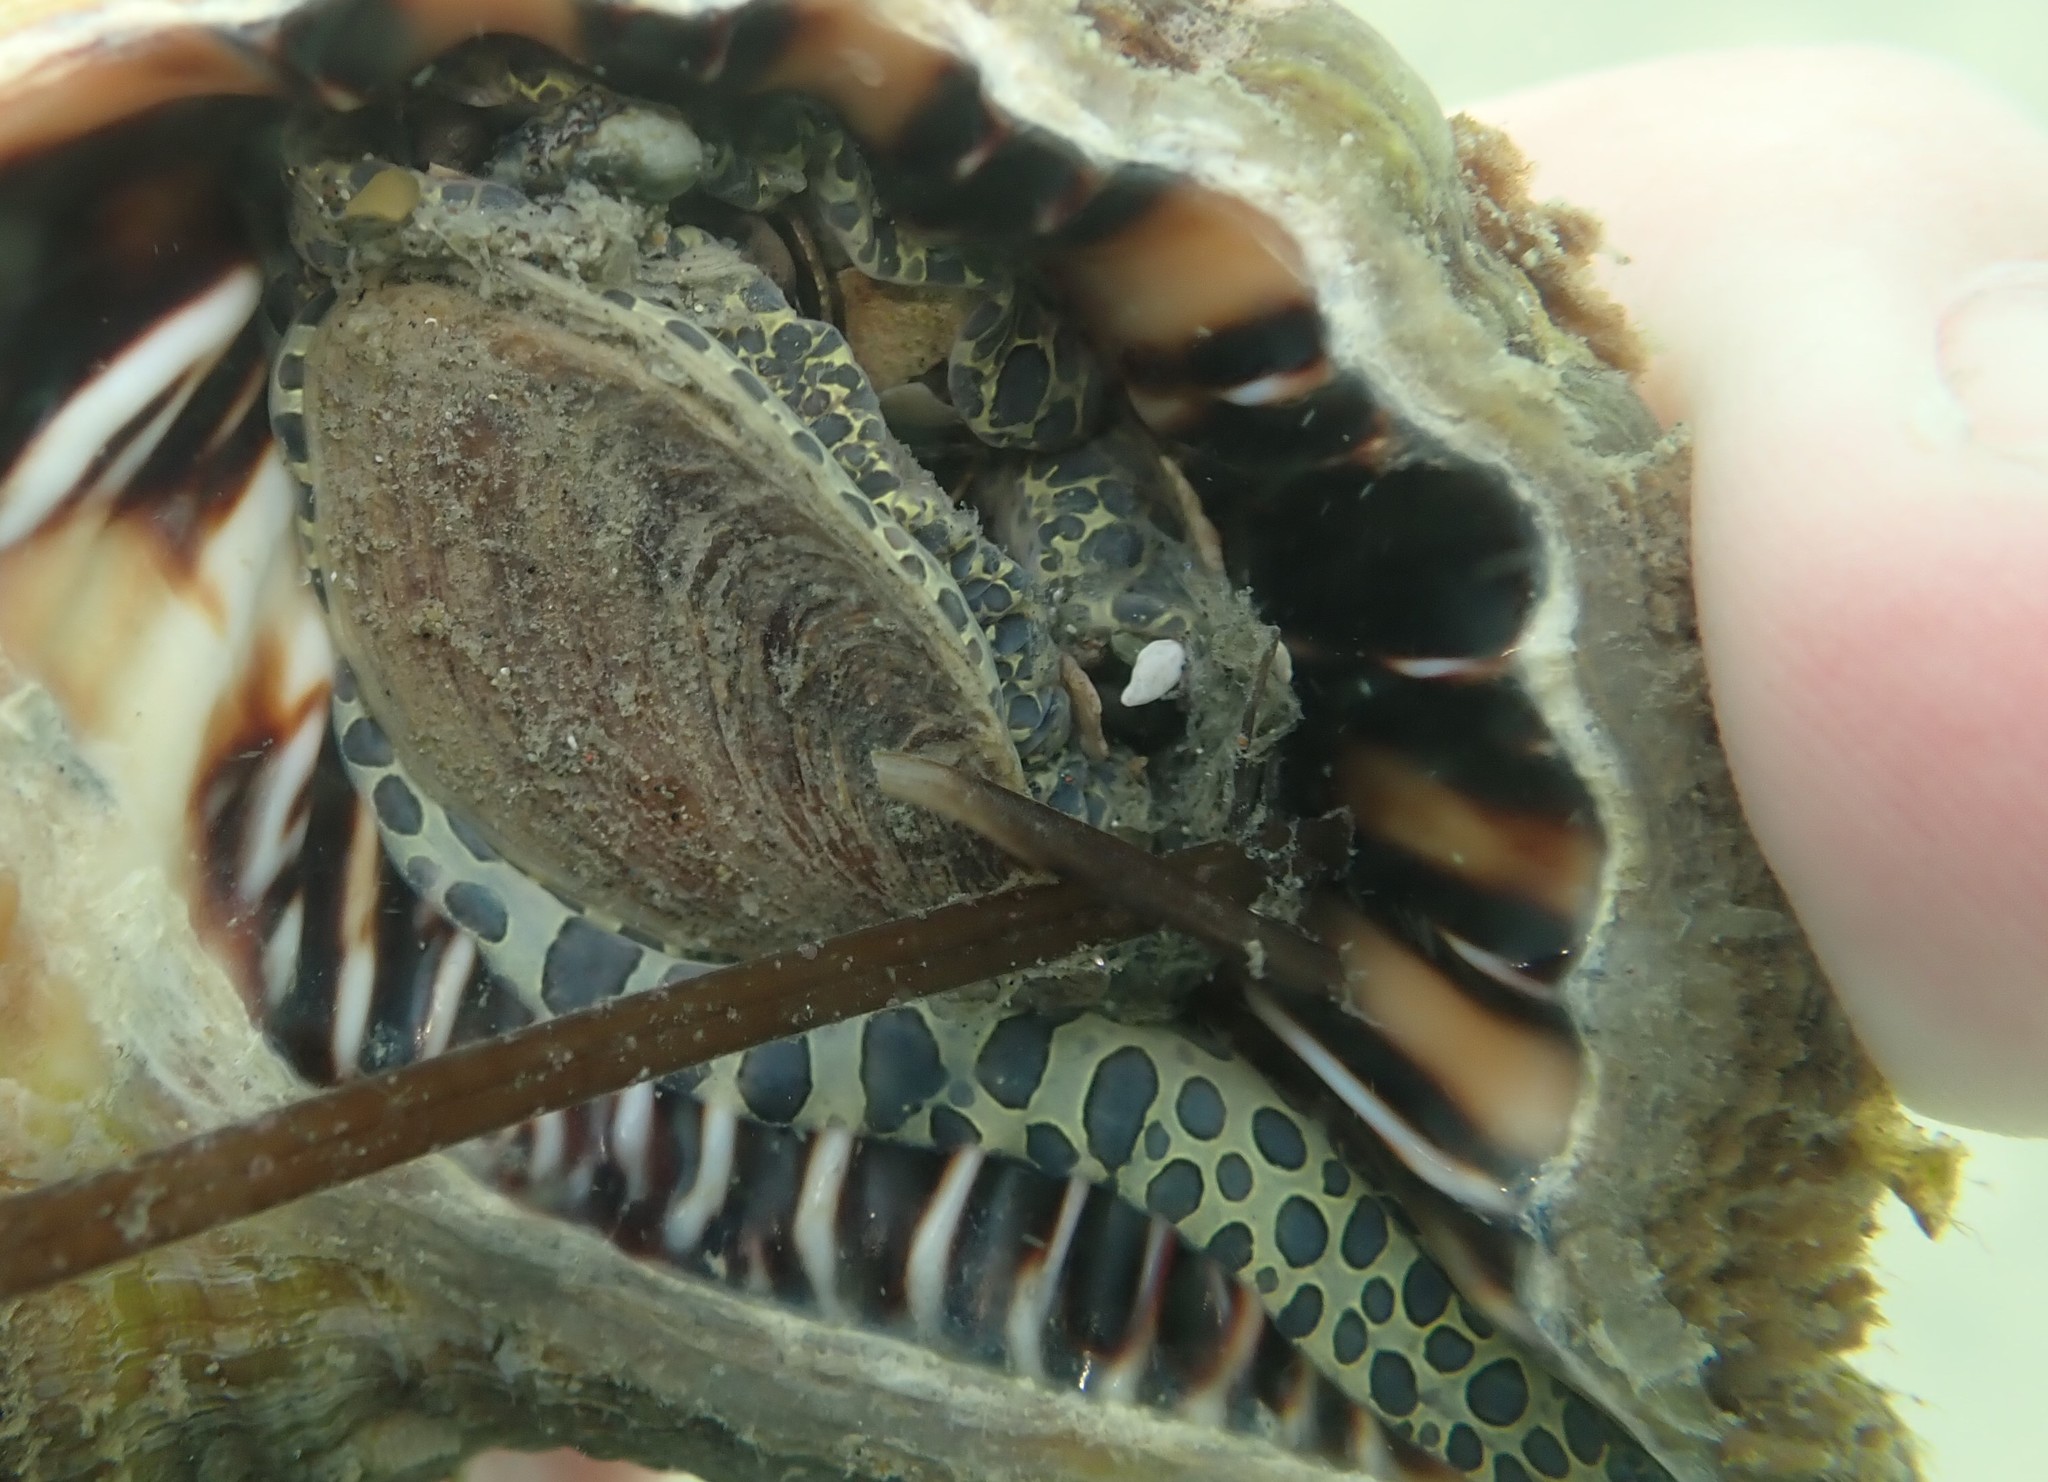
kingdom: Animalia
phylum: Mollusca
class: Gastropoda
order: Littorinimorpha
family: Cymatiidae
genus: Monoplex
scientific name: Monoplex parthenopeus
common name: Giant triton
